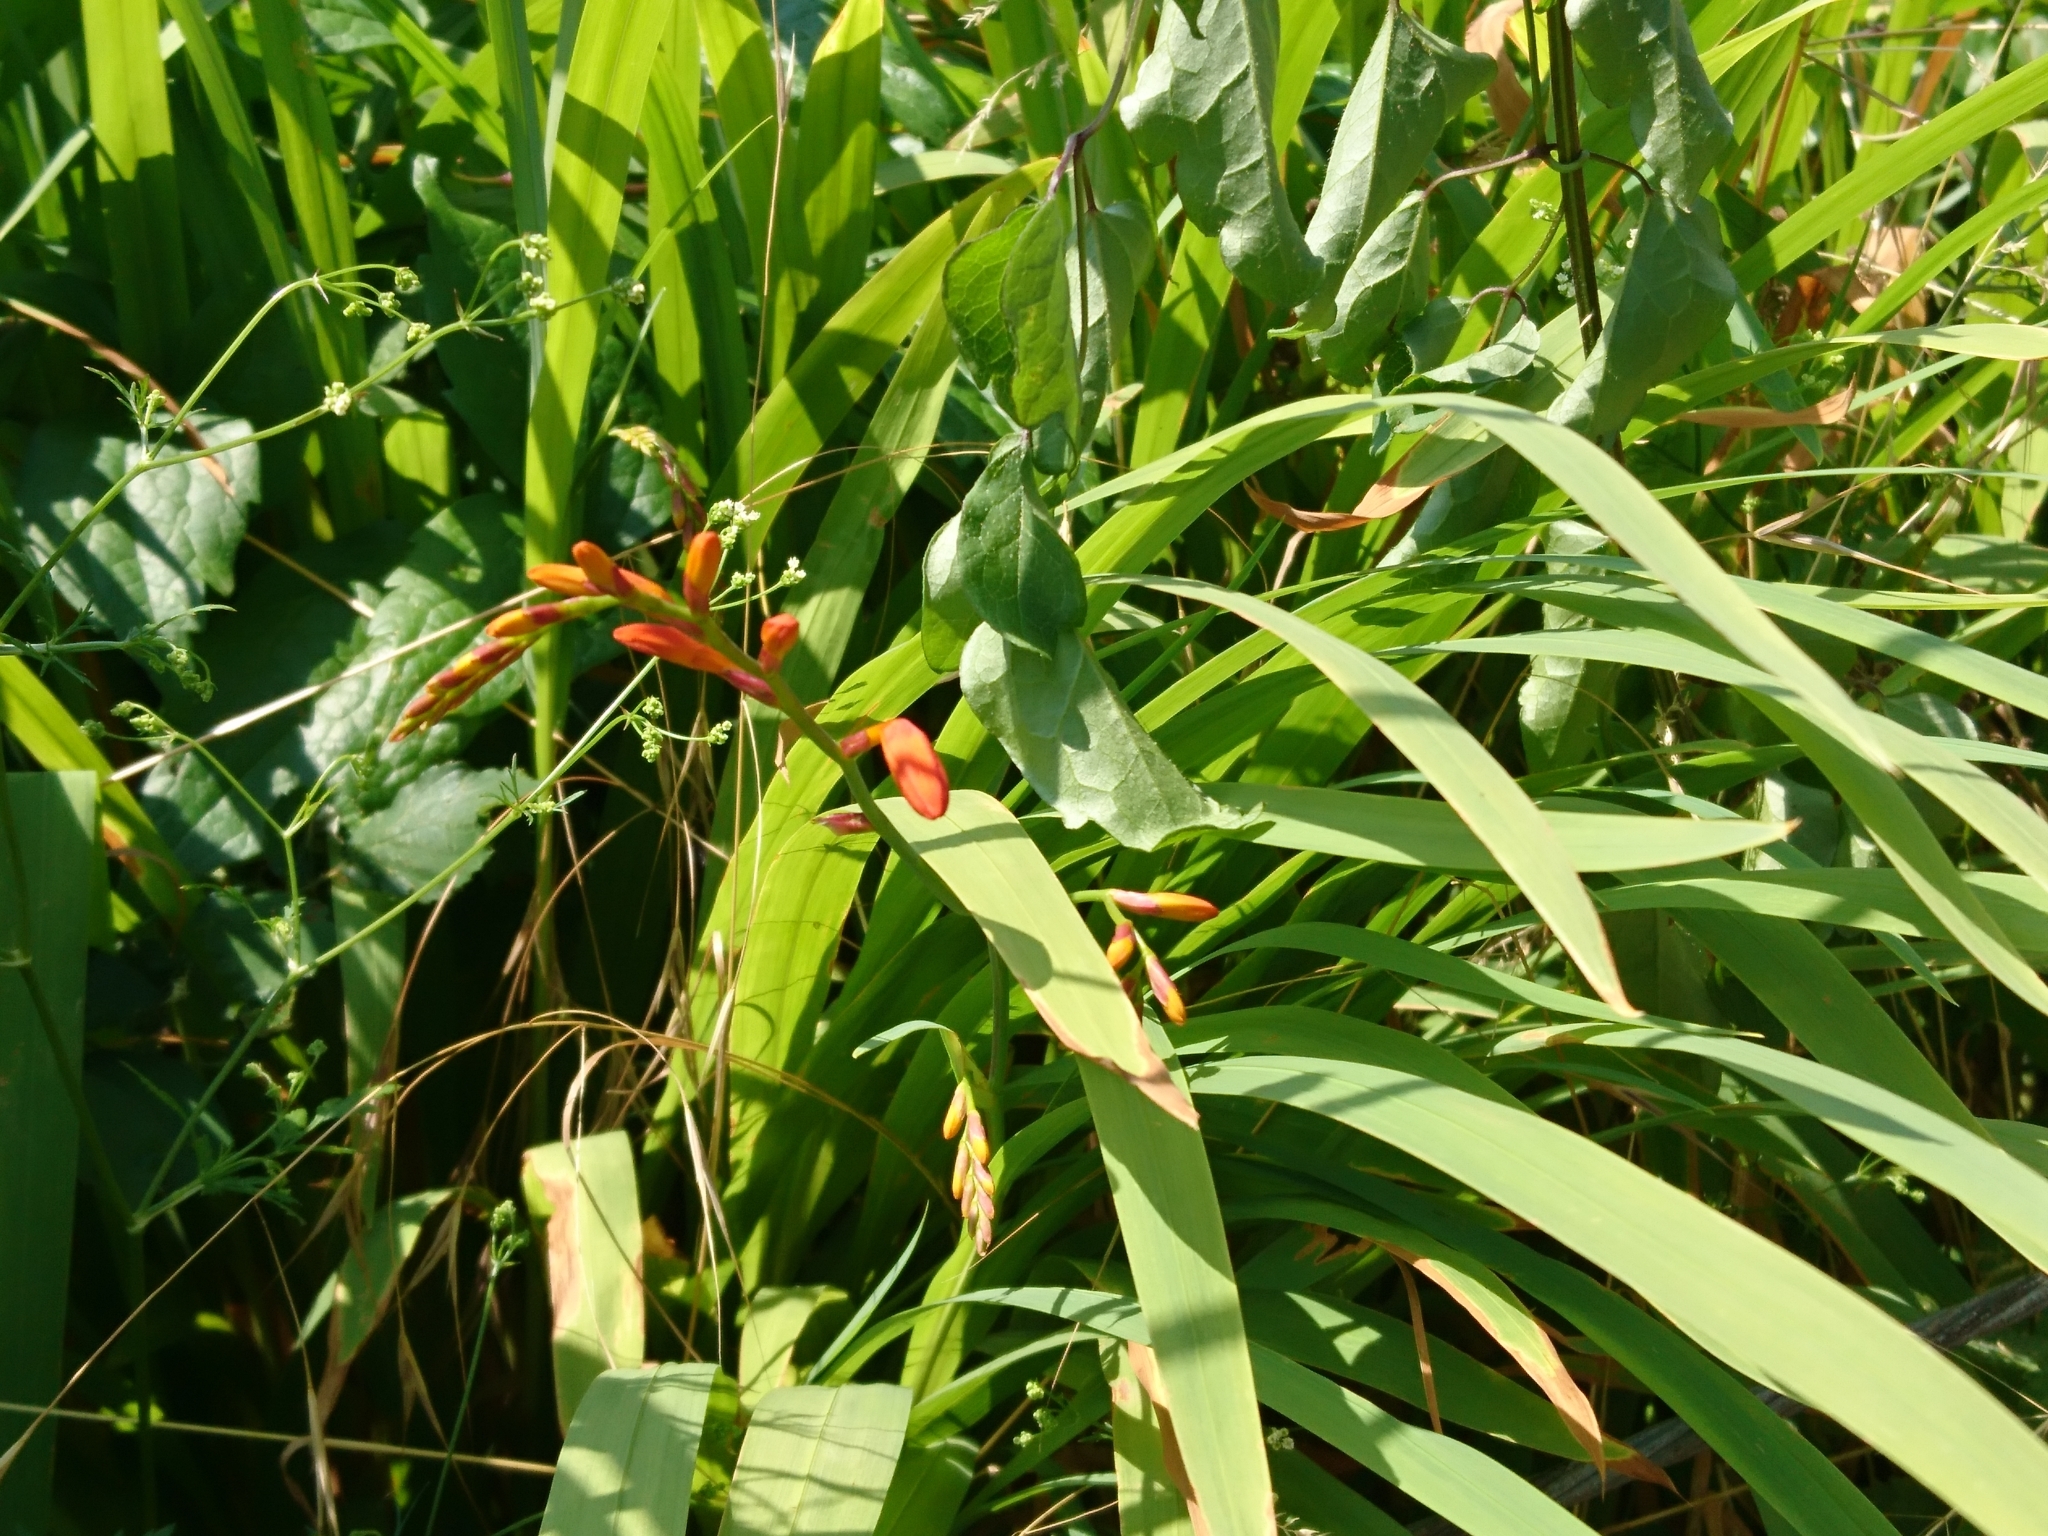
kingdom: Plantae
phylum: Tracheophyta
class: Liliopsida
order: Asparagales
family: Iridaceae
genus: Crocosmia
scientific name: Crocosmia crocosmiiflora
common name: Montbretia
